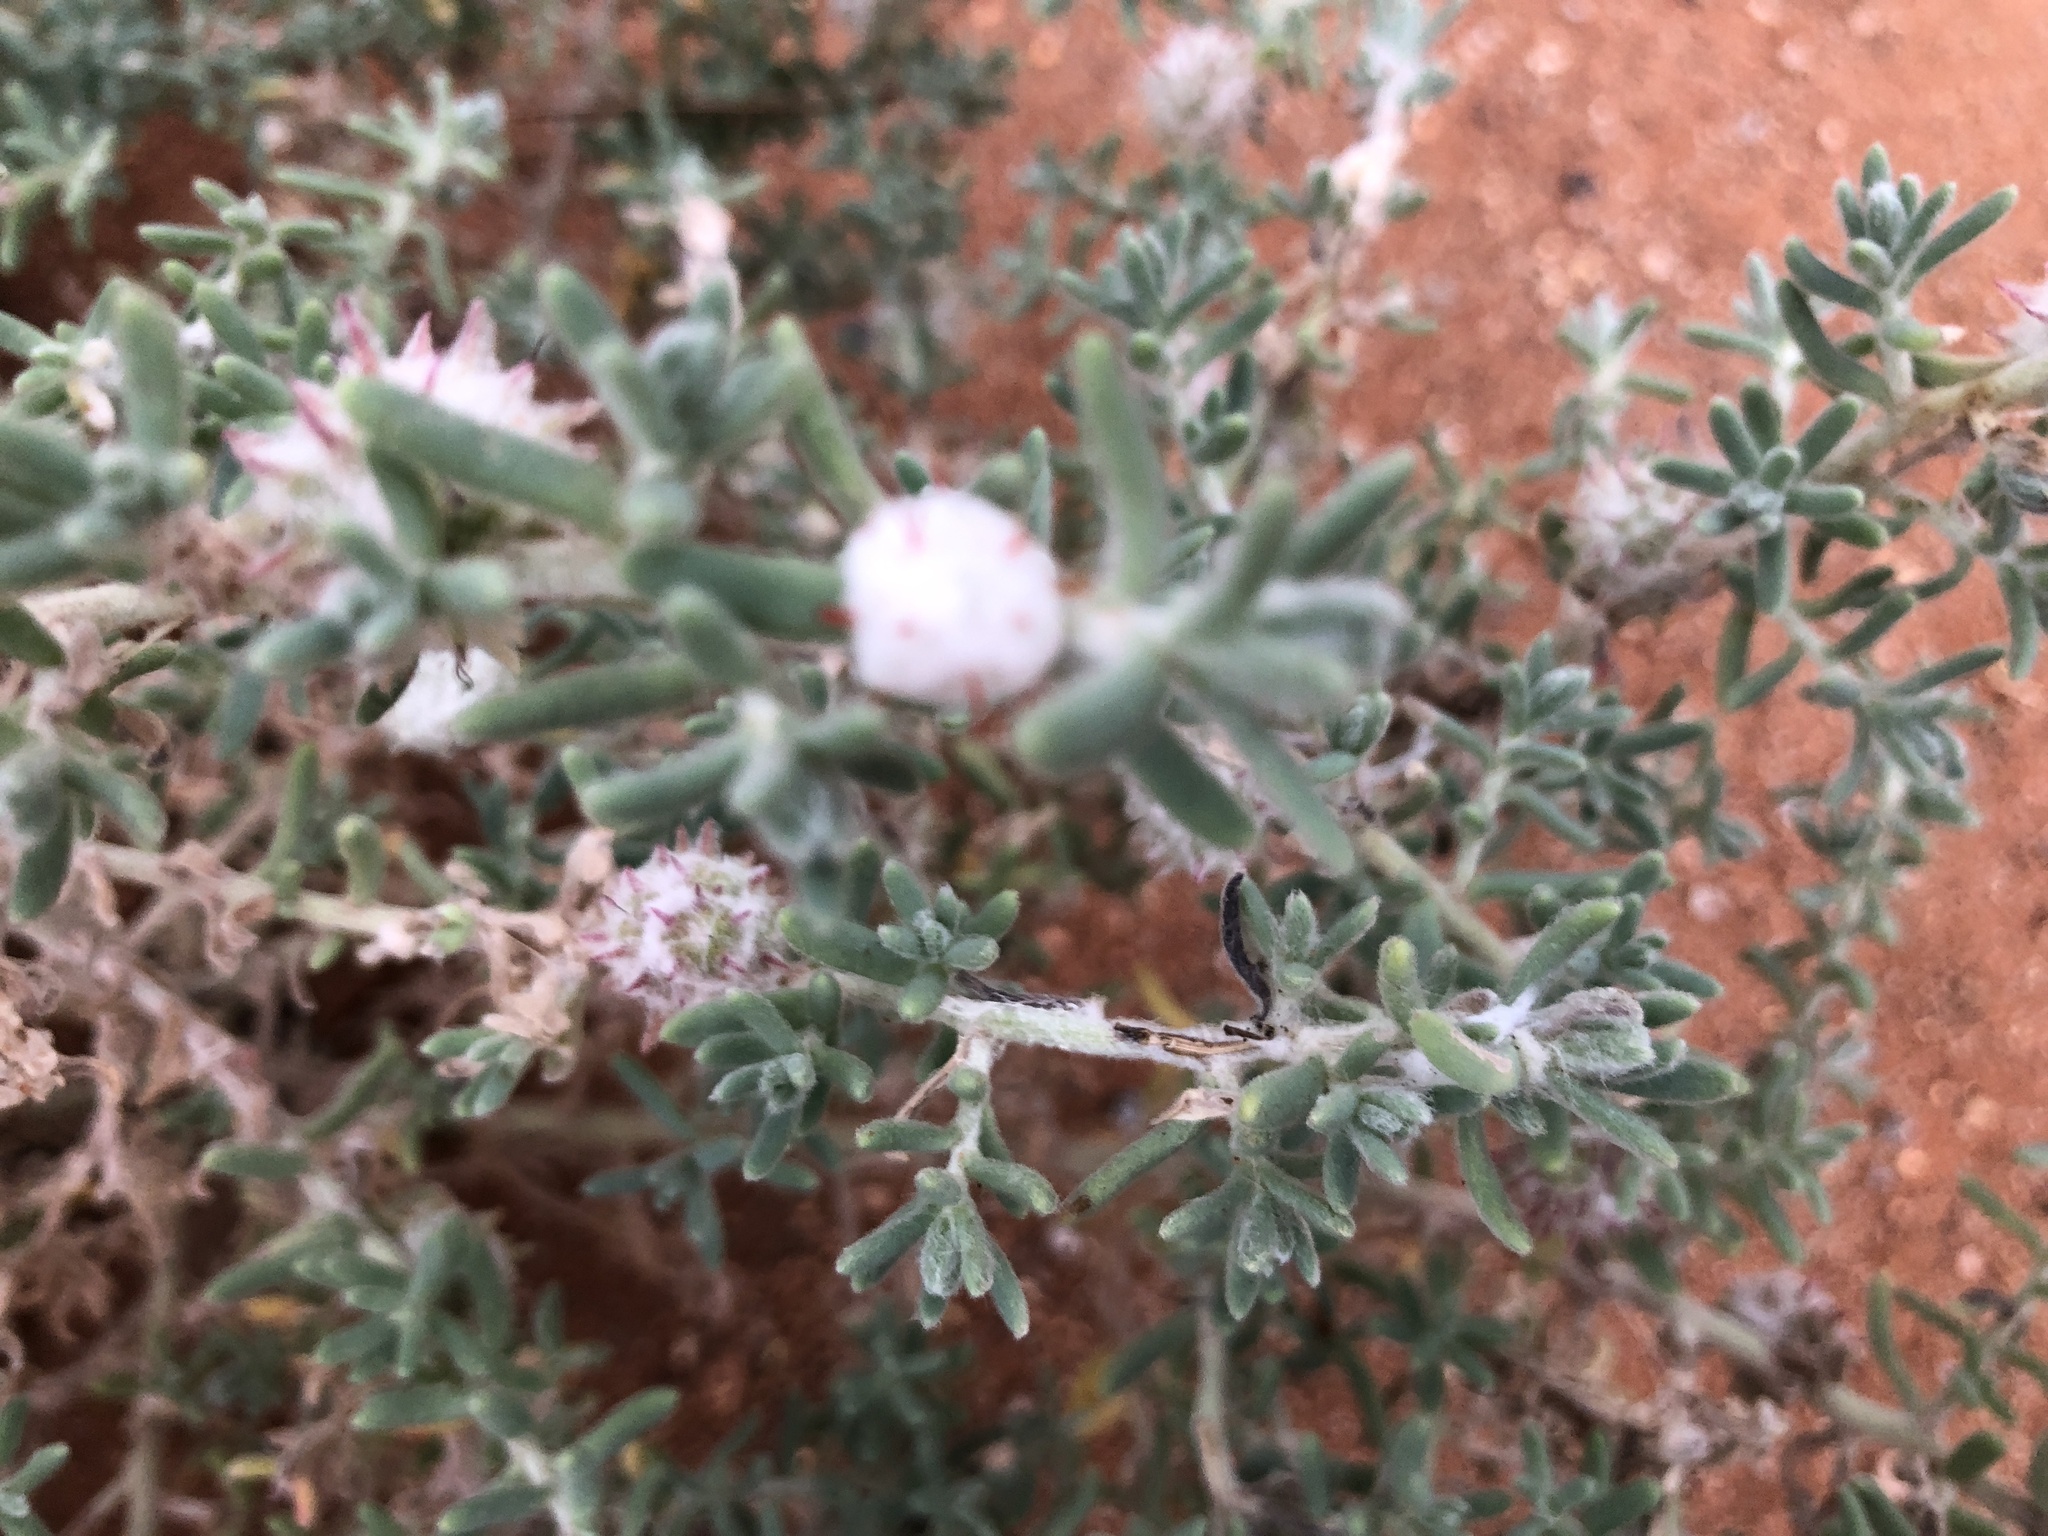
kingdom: Plantae
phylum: Tracheophyta
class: Magnoliopsida
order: Caryophyllales
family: Amaranthaceae
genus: Dissocarpus
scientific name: Dissocarpus paradoxus
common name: Bur-saltbush
